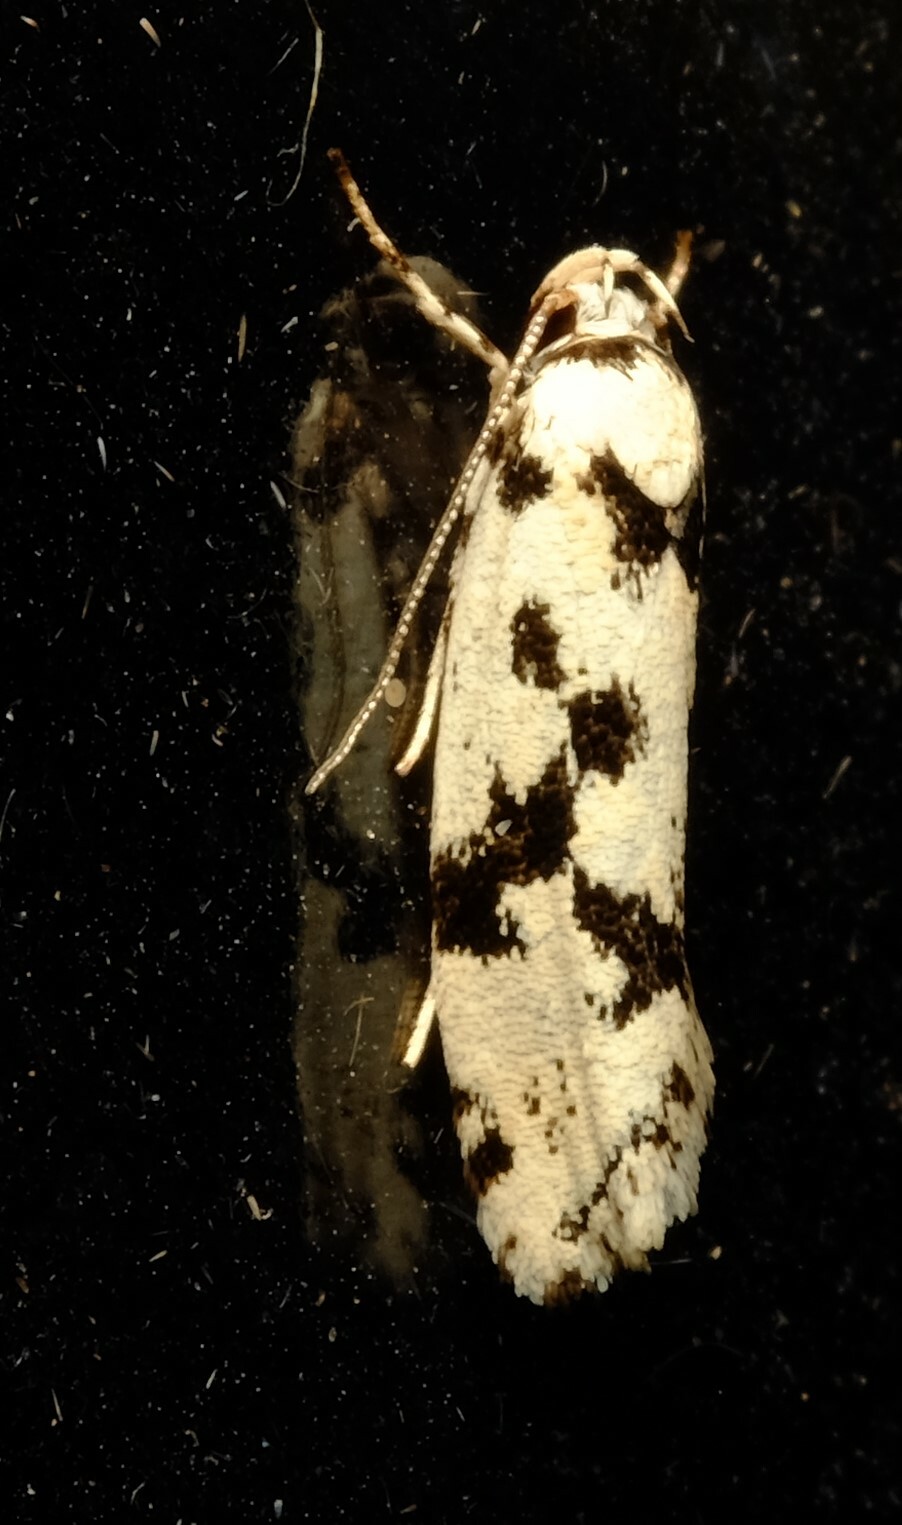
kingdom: Animalia
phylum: Arthropoda
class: Insecta
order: Lepidoptera
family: Xyloryctidae
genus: Lichenaula
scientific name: Lichenaula calligrapha
